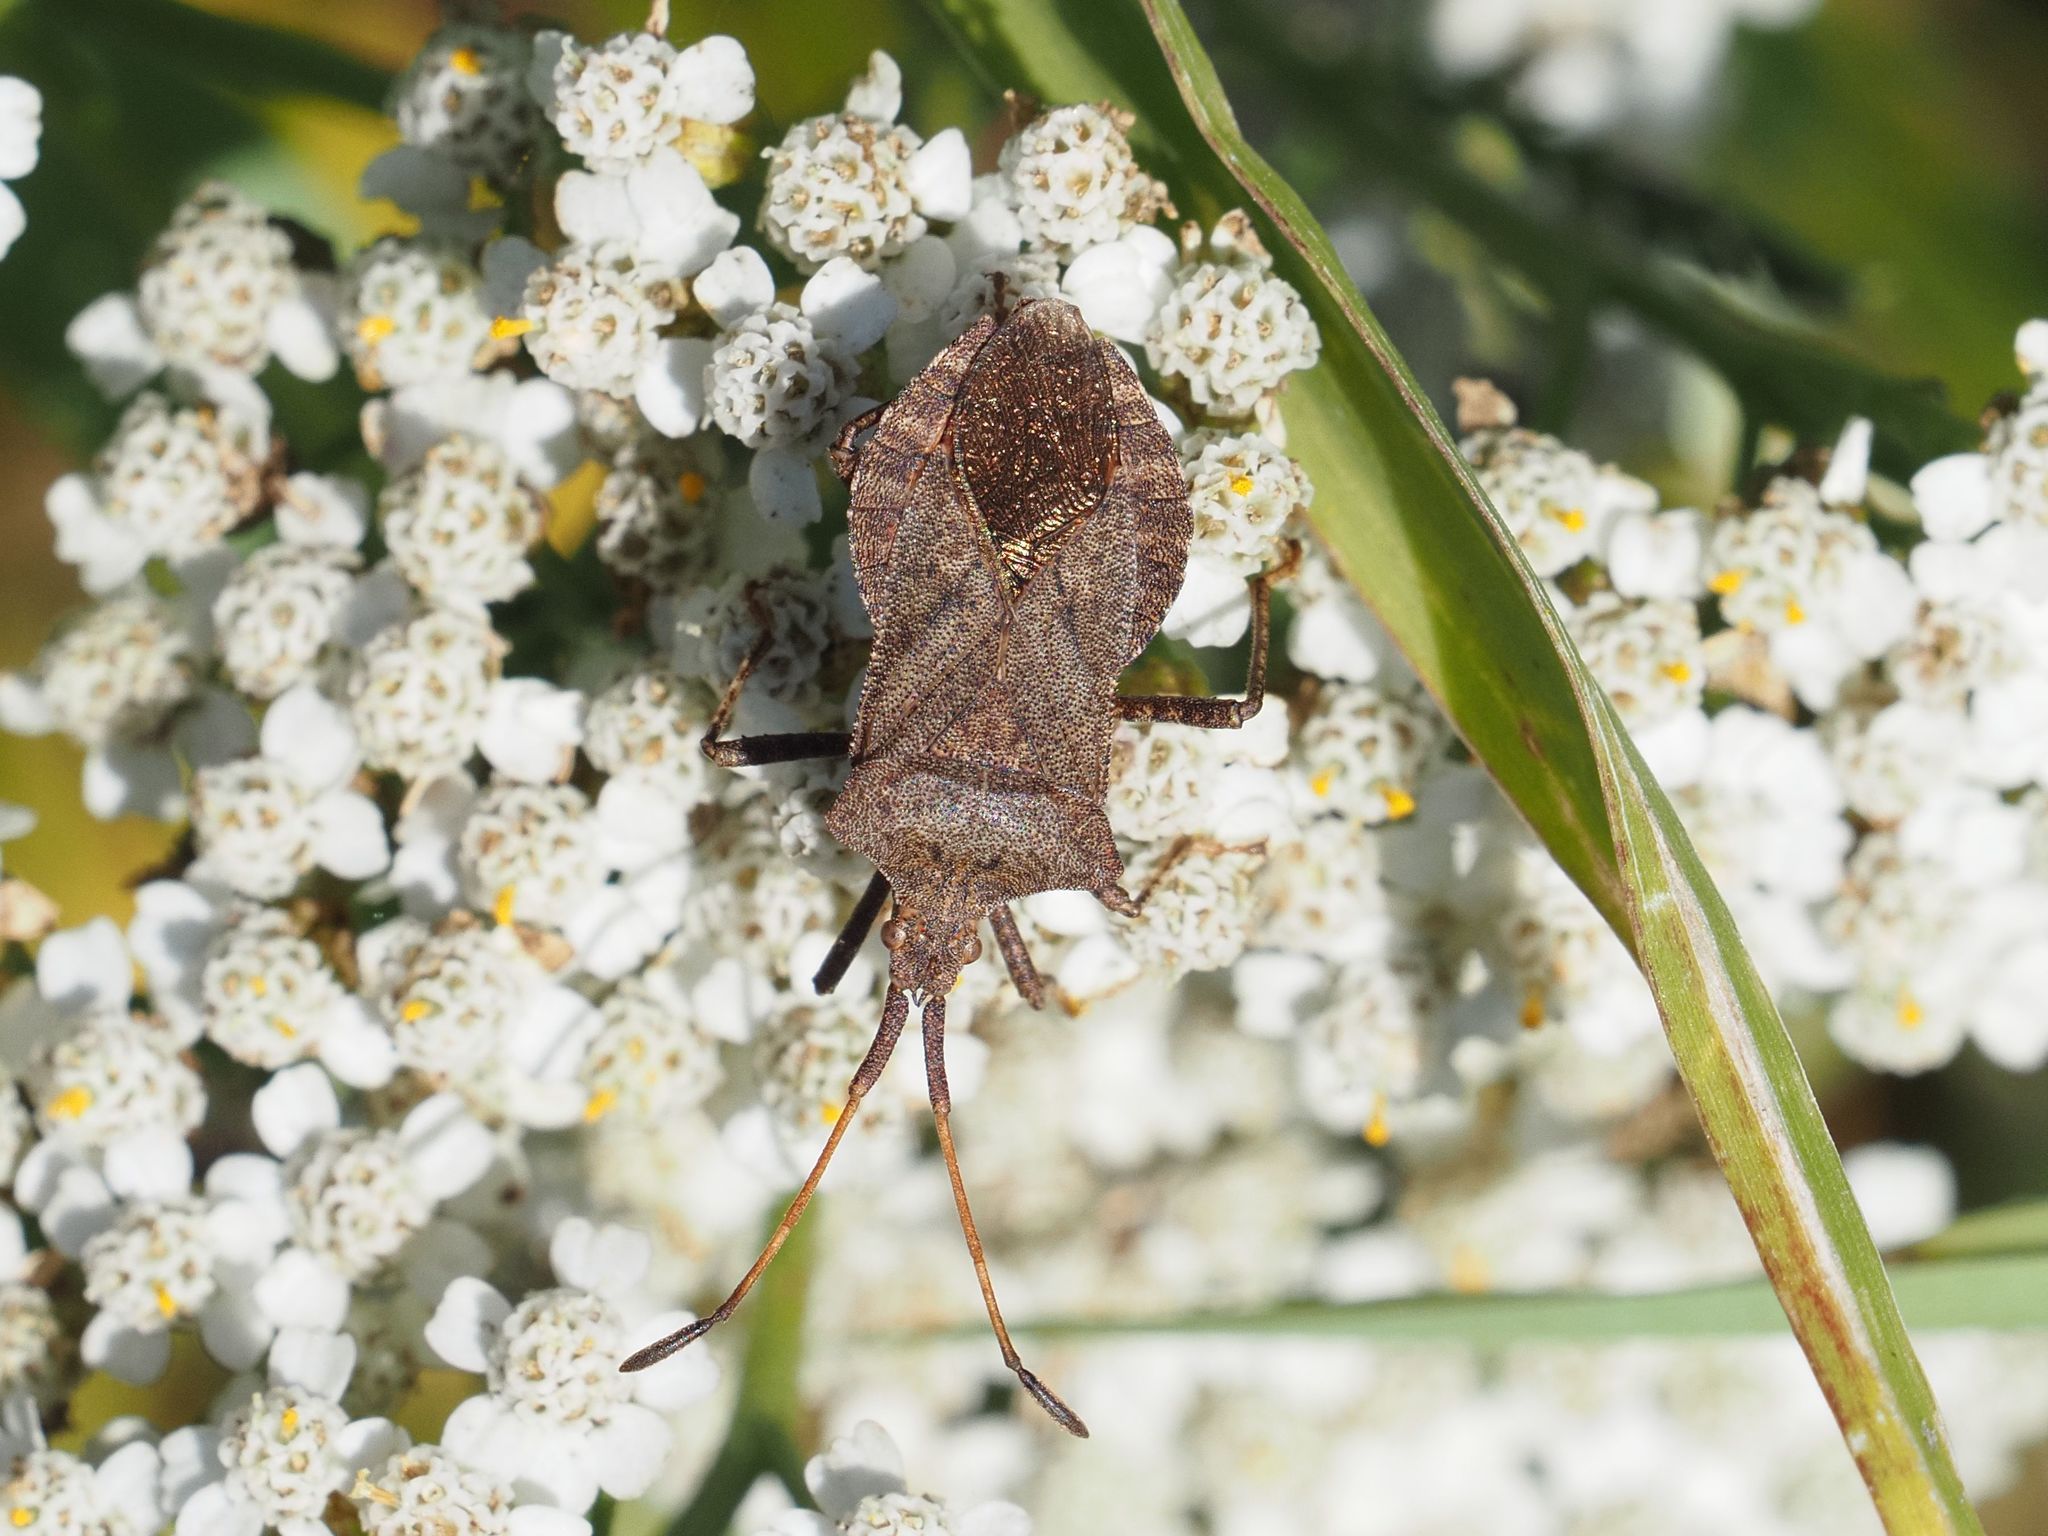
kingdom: Animalia
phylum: Arthropoda
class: Insecta
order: Hemiptera
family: Coreidae
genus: Coreus
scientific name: Coreus marginatus
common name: Dock bug
